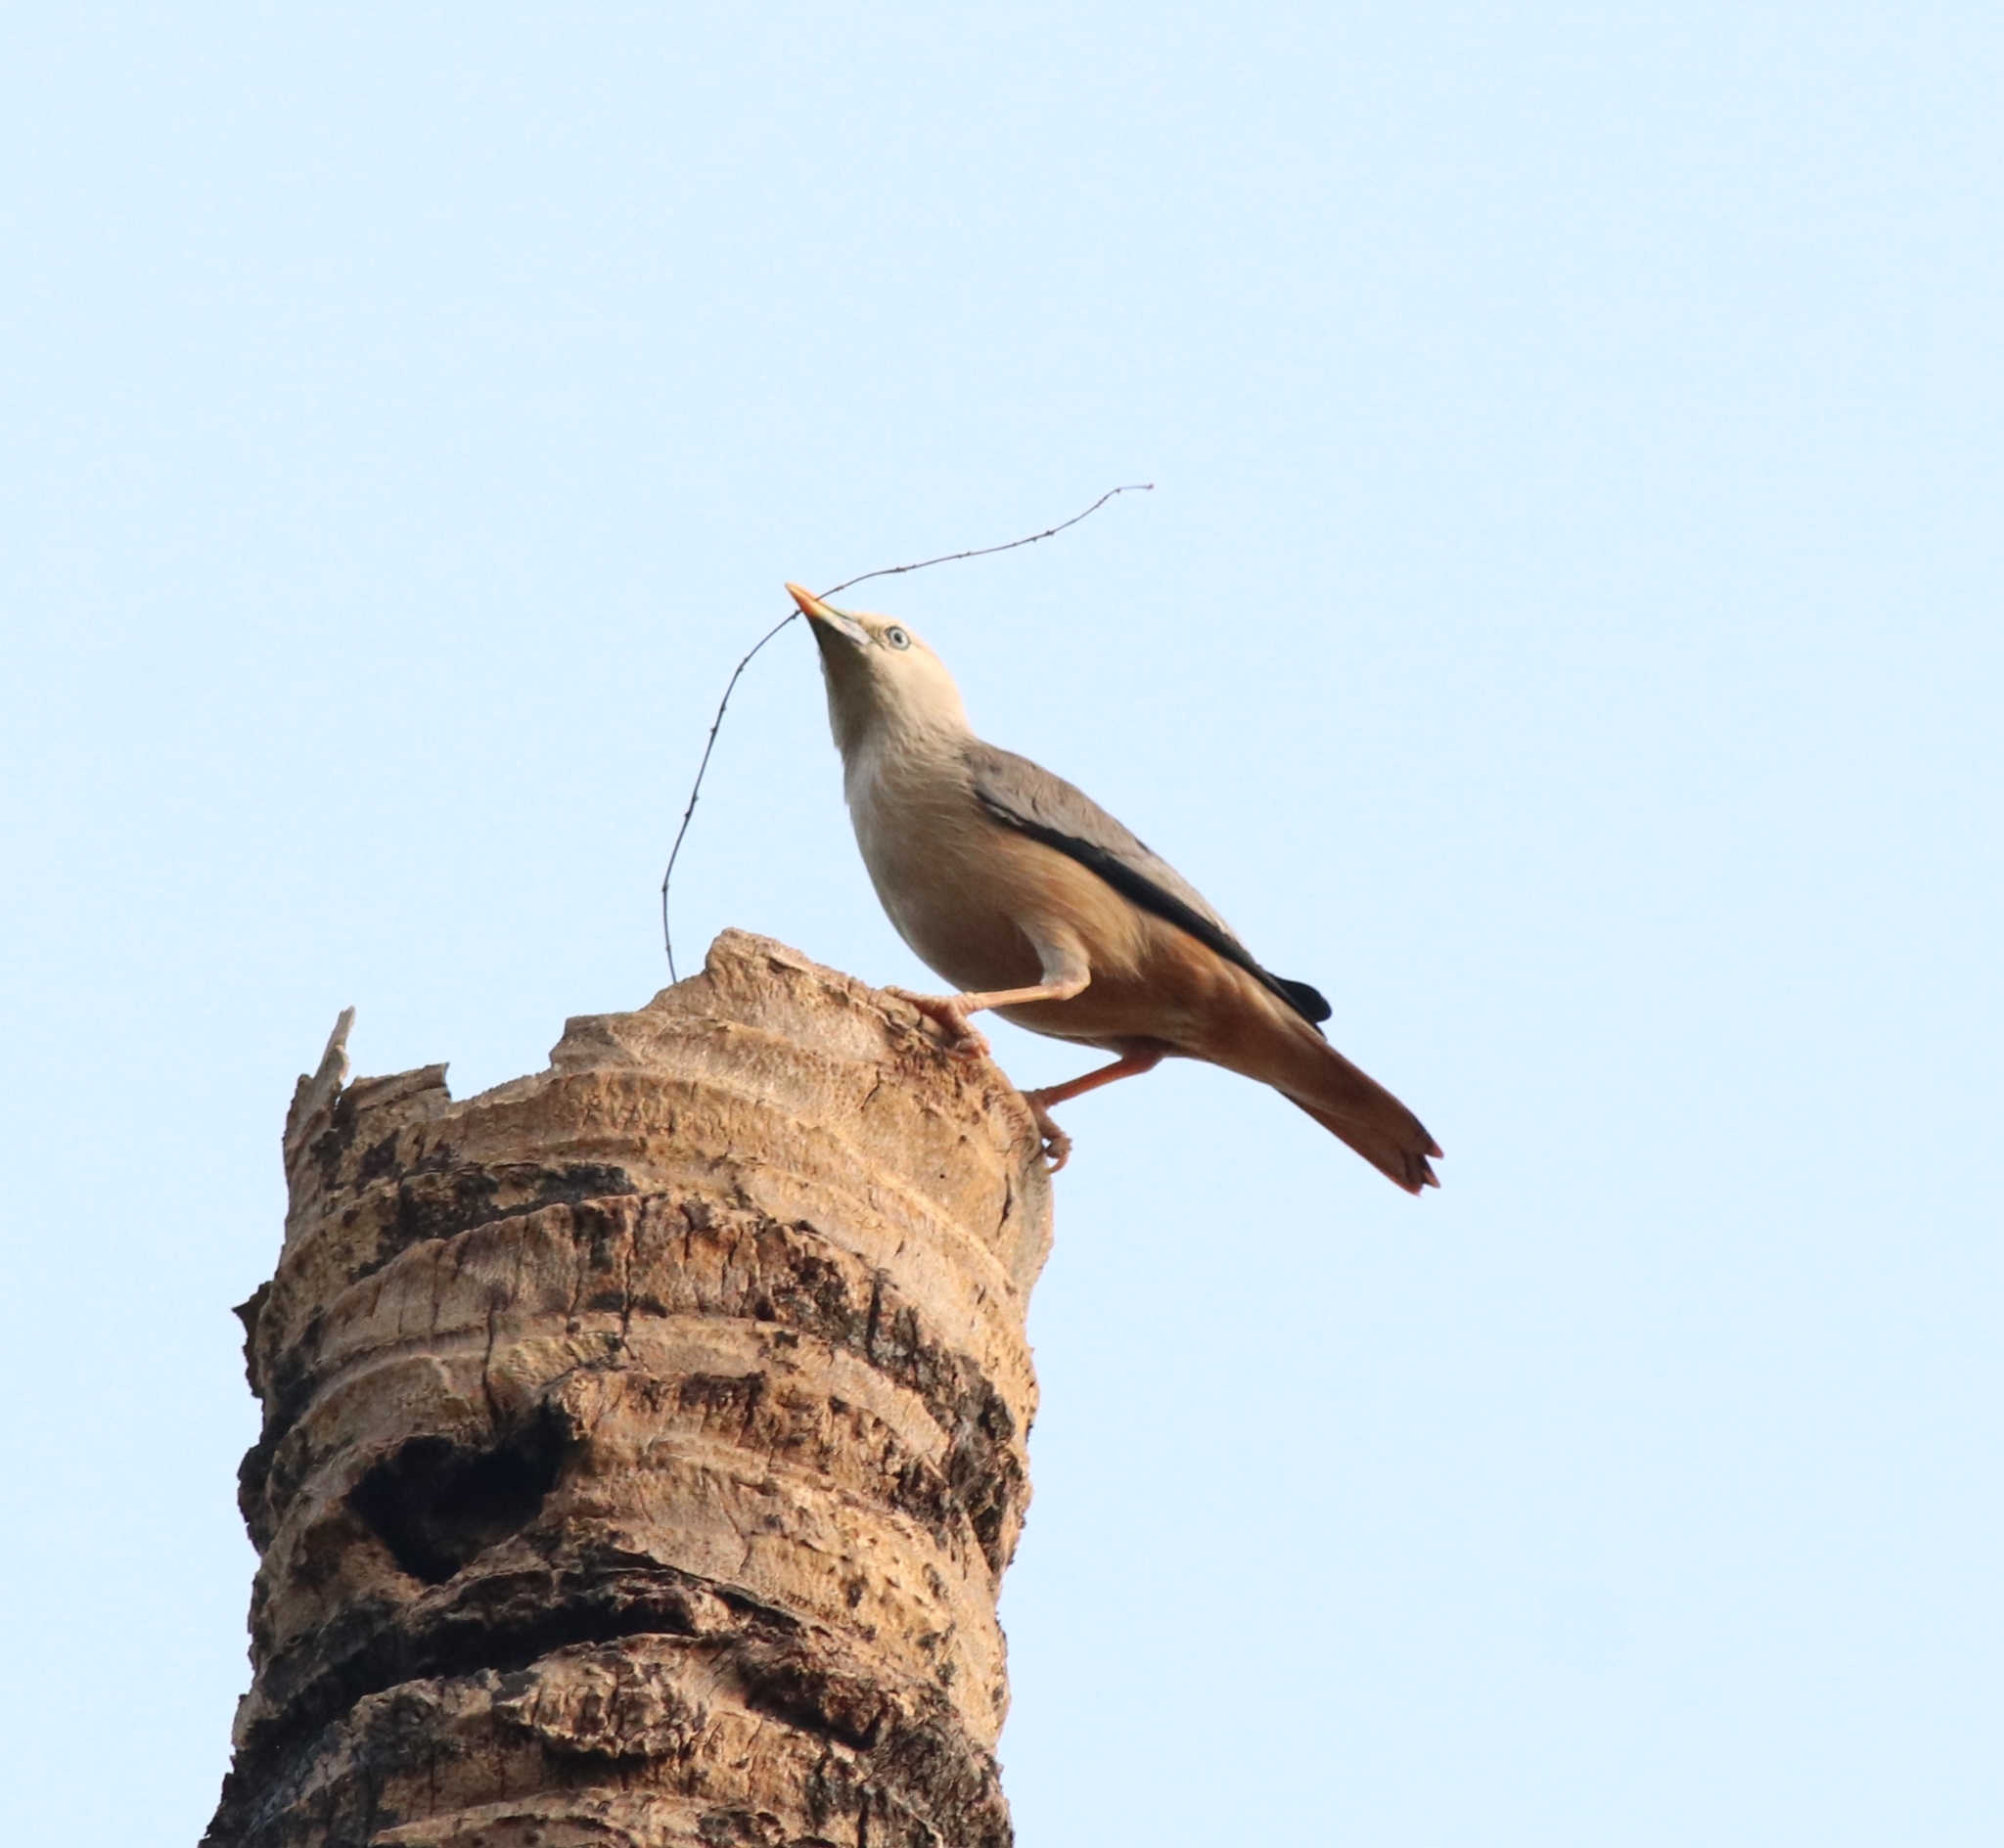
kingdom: Animalia
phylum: Chordata
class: Aves
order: Passeriformes
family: Sturnidae
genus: Sturnia
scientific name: Sturnia blythii
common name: Malabar starling
